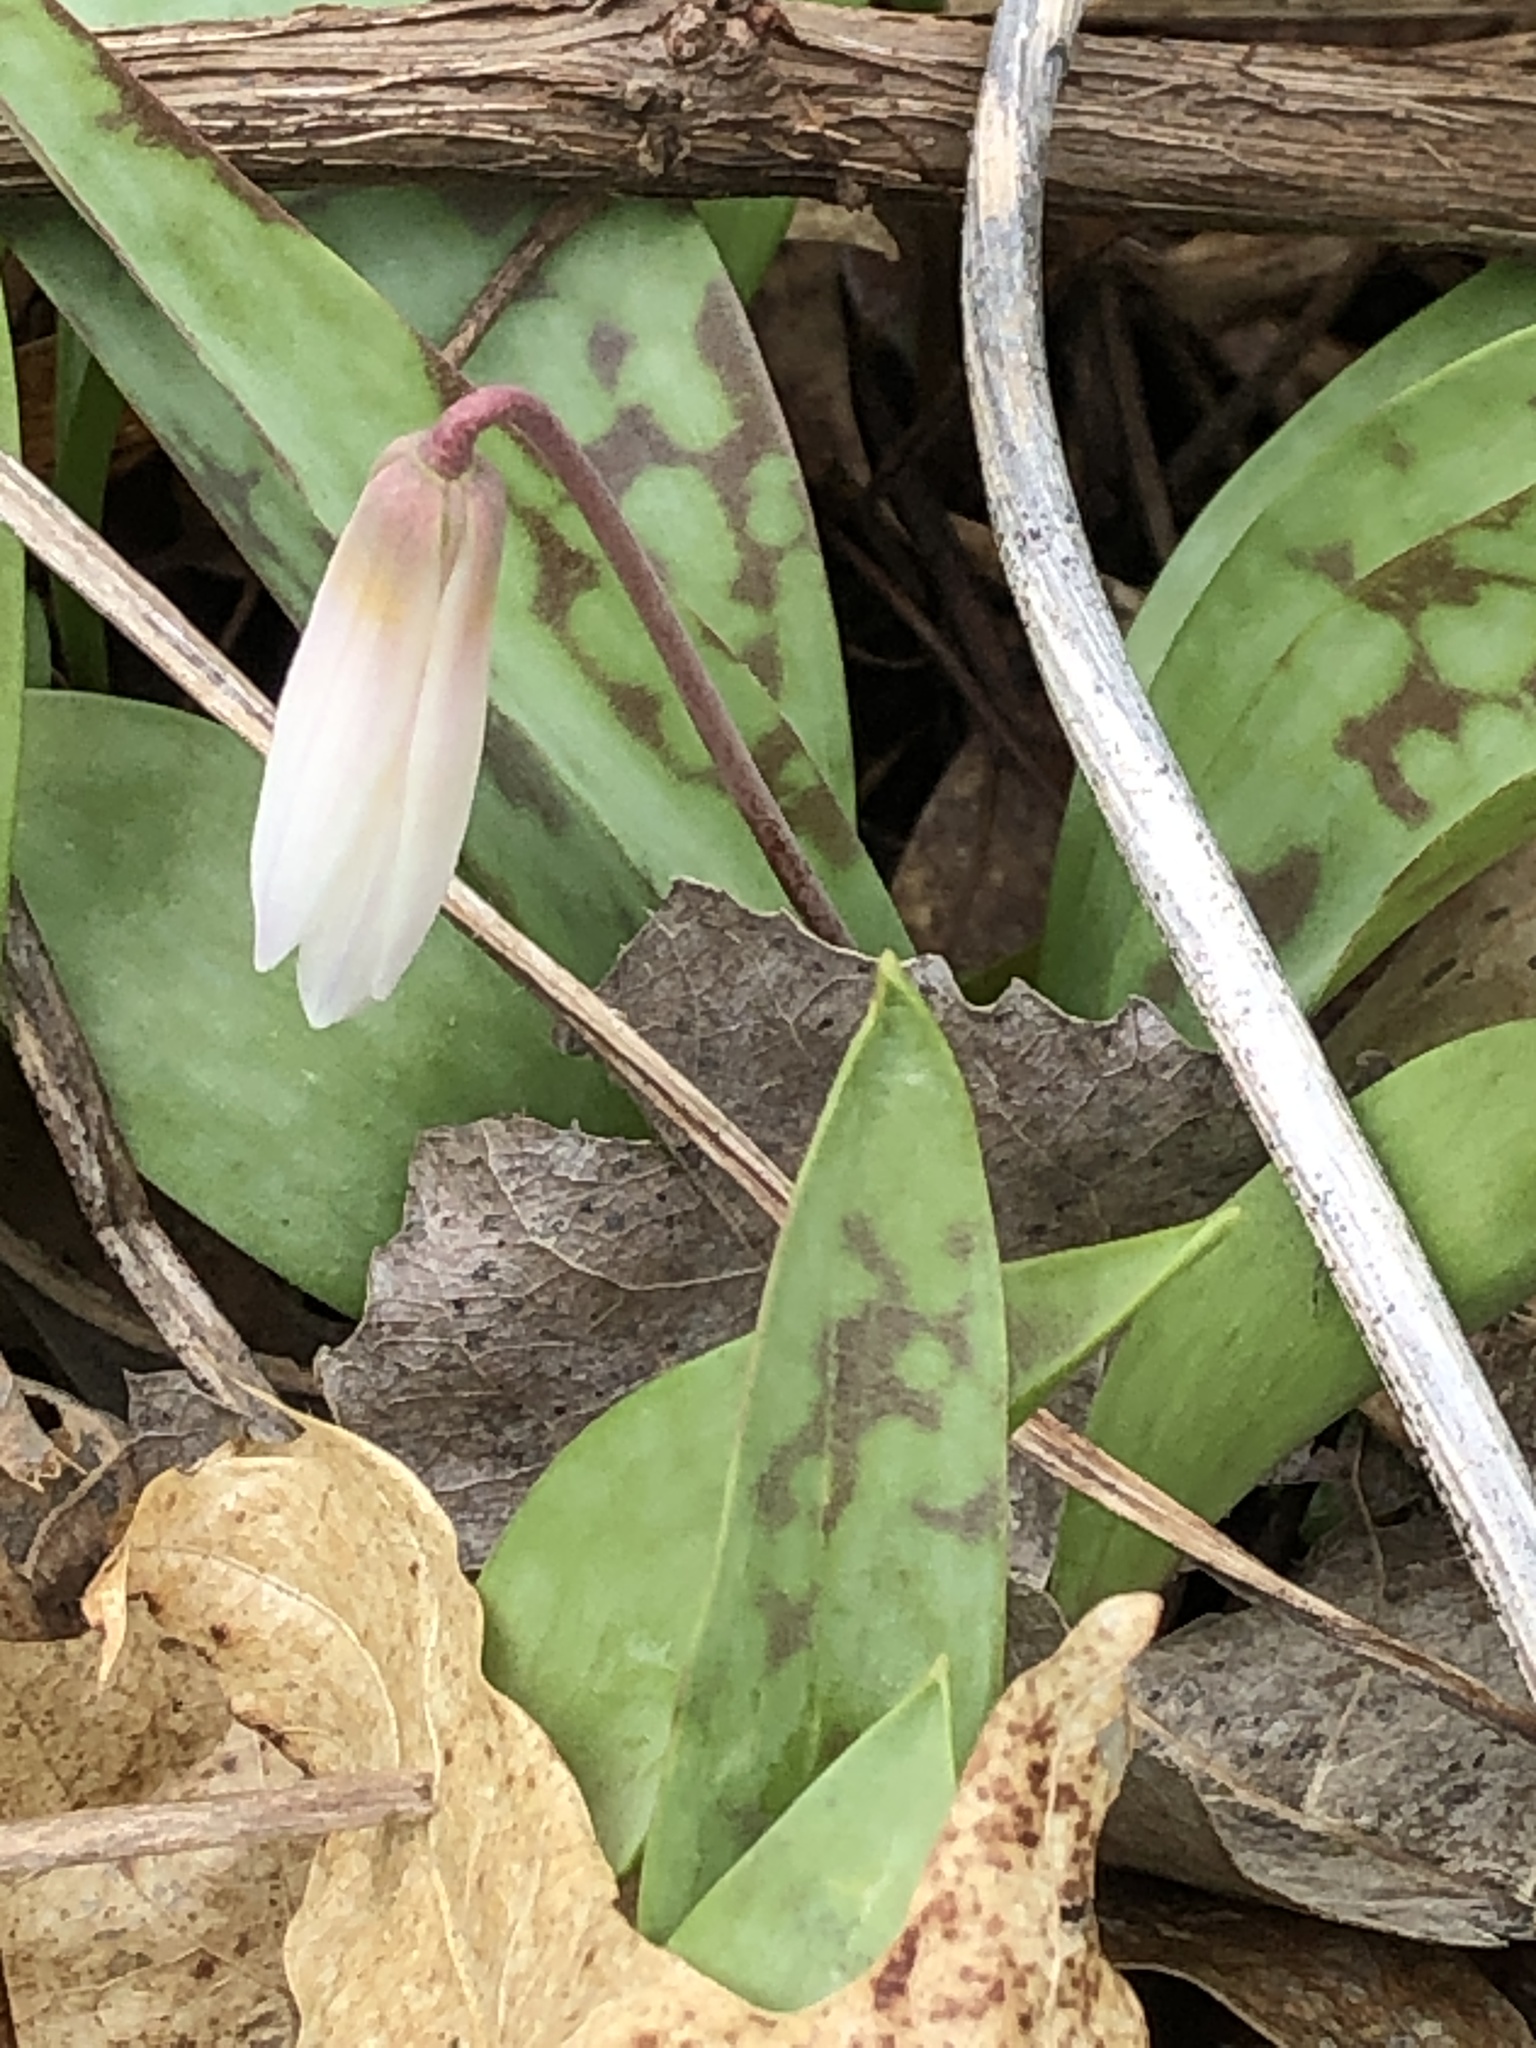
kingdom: Plantae
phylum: Tracheophyta
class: Liliopsida
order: Liliales
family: Liliaceae
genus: Erythronium
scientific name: Erythronium albidum
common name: White trout-lily
